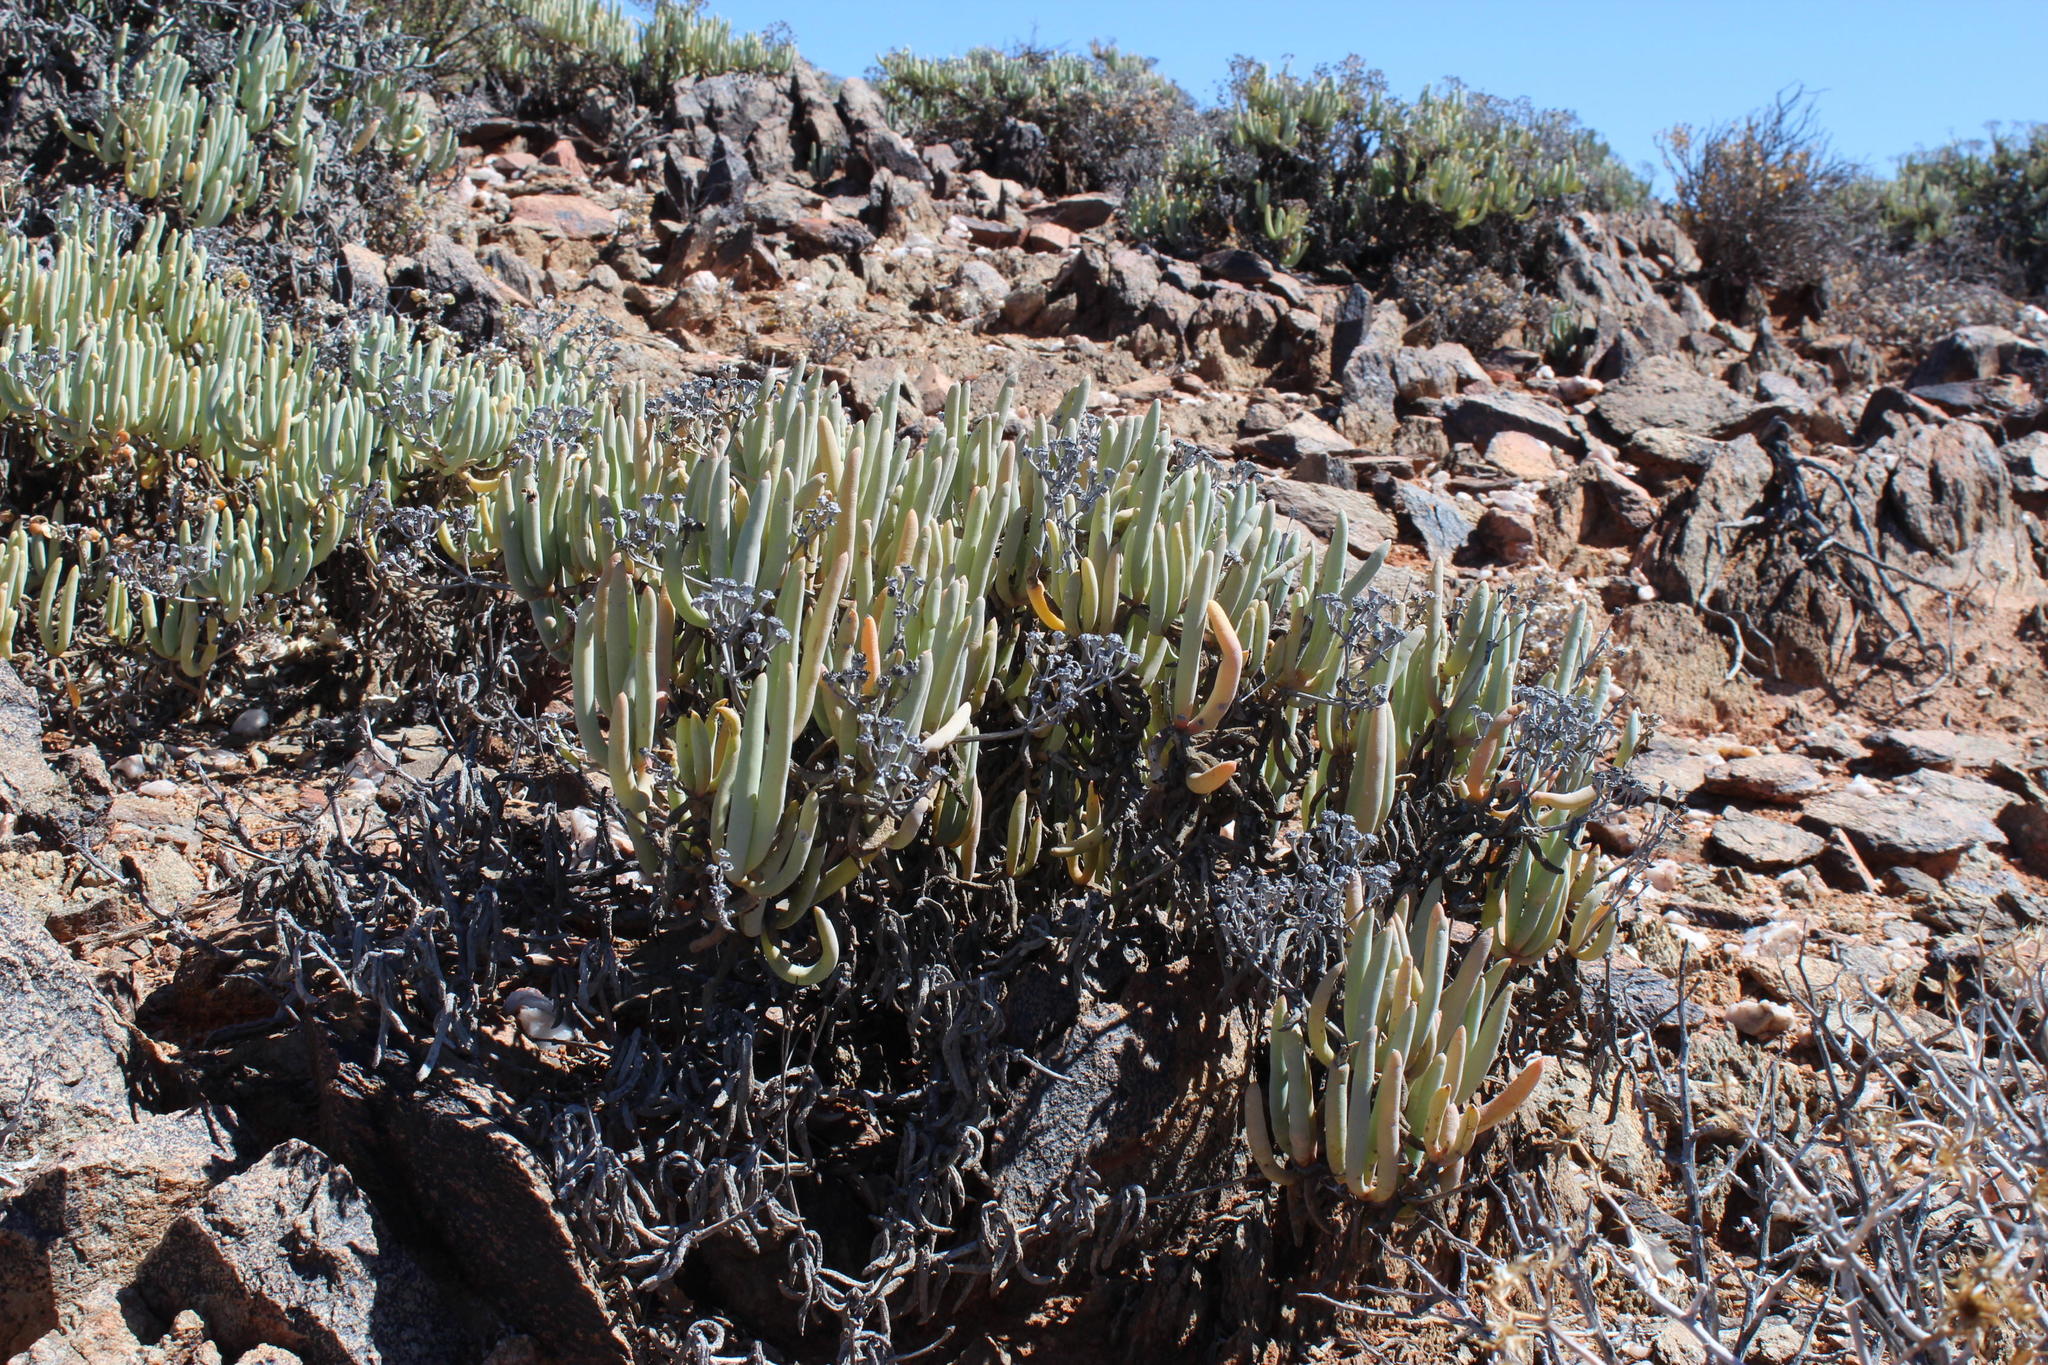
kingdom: Plantae
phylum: Tracheophyta
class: Magnoliopsida
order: Caryophyllales
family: Aizoaceae
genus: Ruschia
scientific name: Ruschia fugitans
